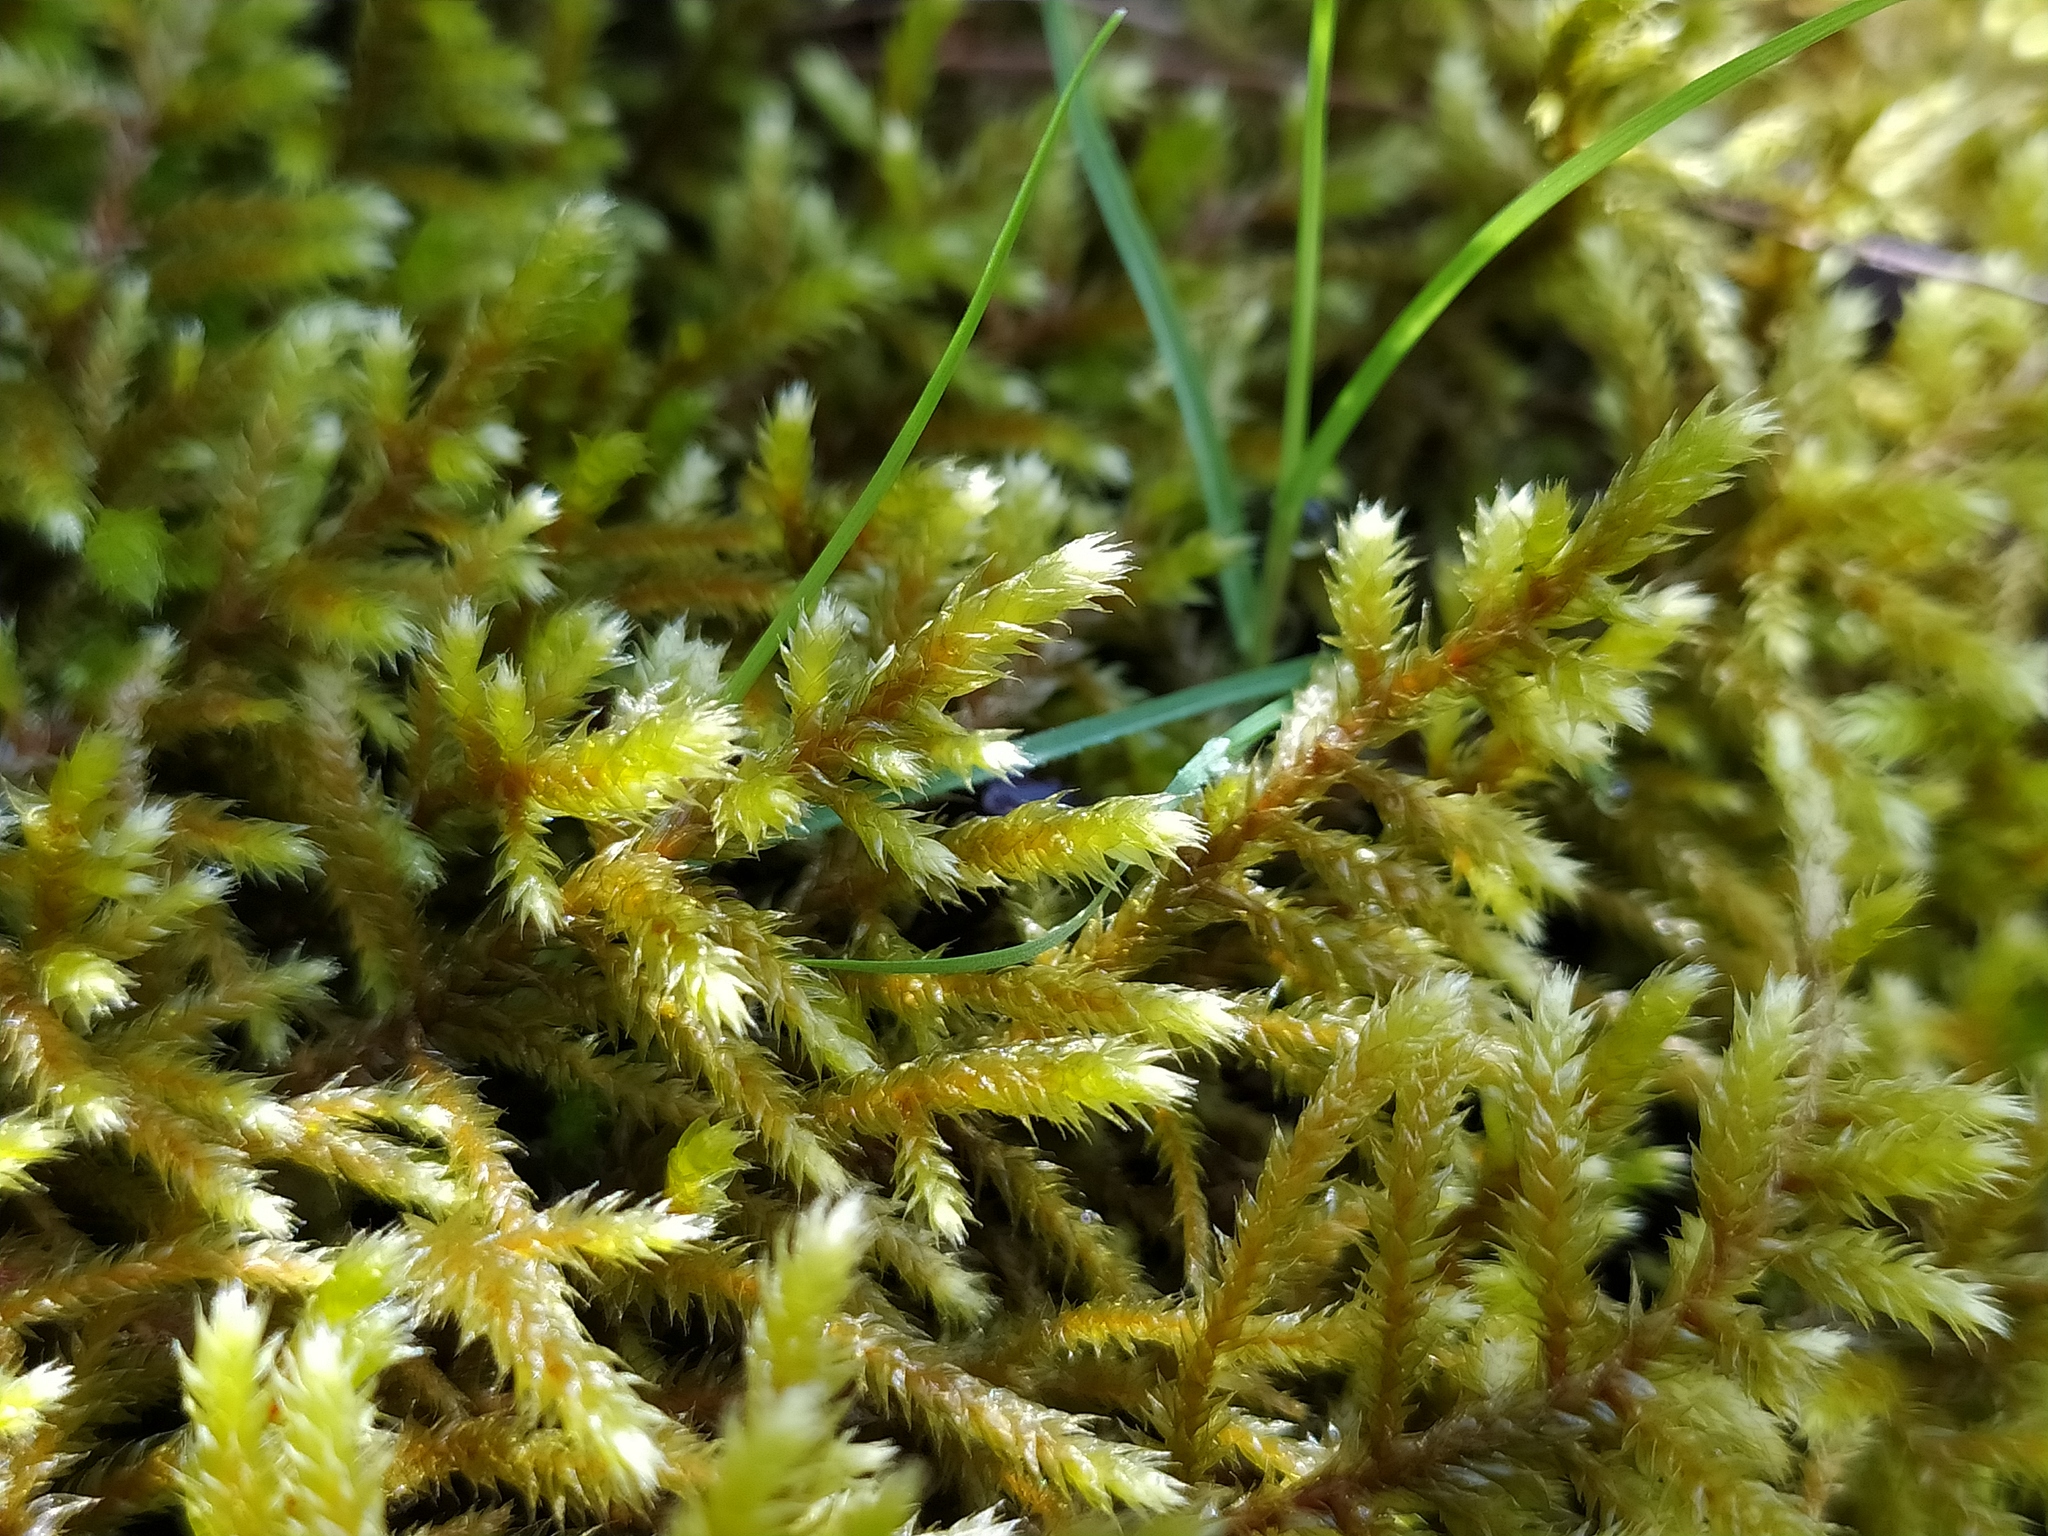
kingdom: Plantae
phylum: Bryophyta
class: Bryopsida
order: Hypnales
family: Antitrichiaceae
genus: Antitrichia
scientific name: Antitrichia curtipendula
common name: Pendulous wing-moss
